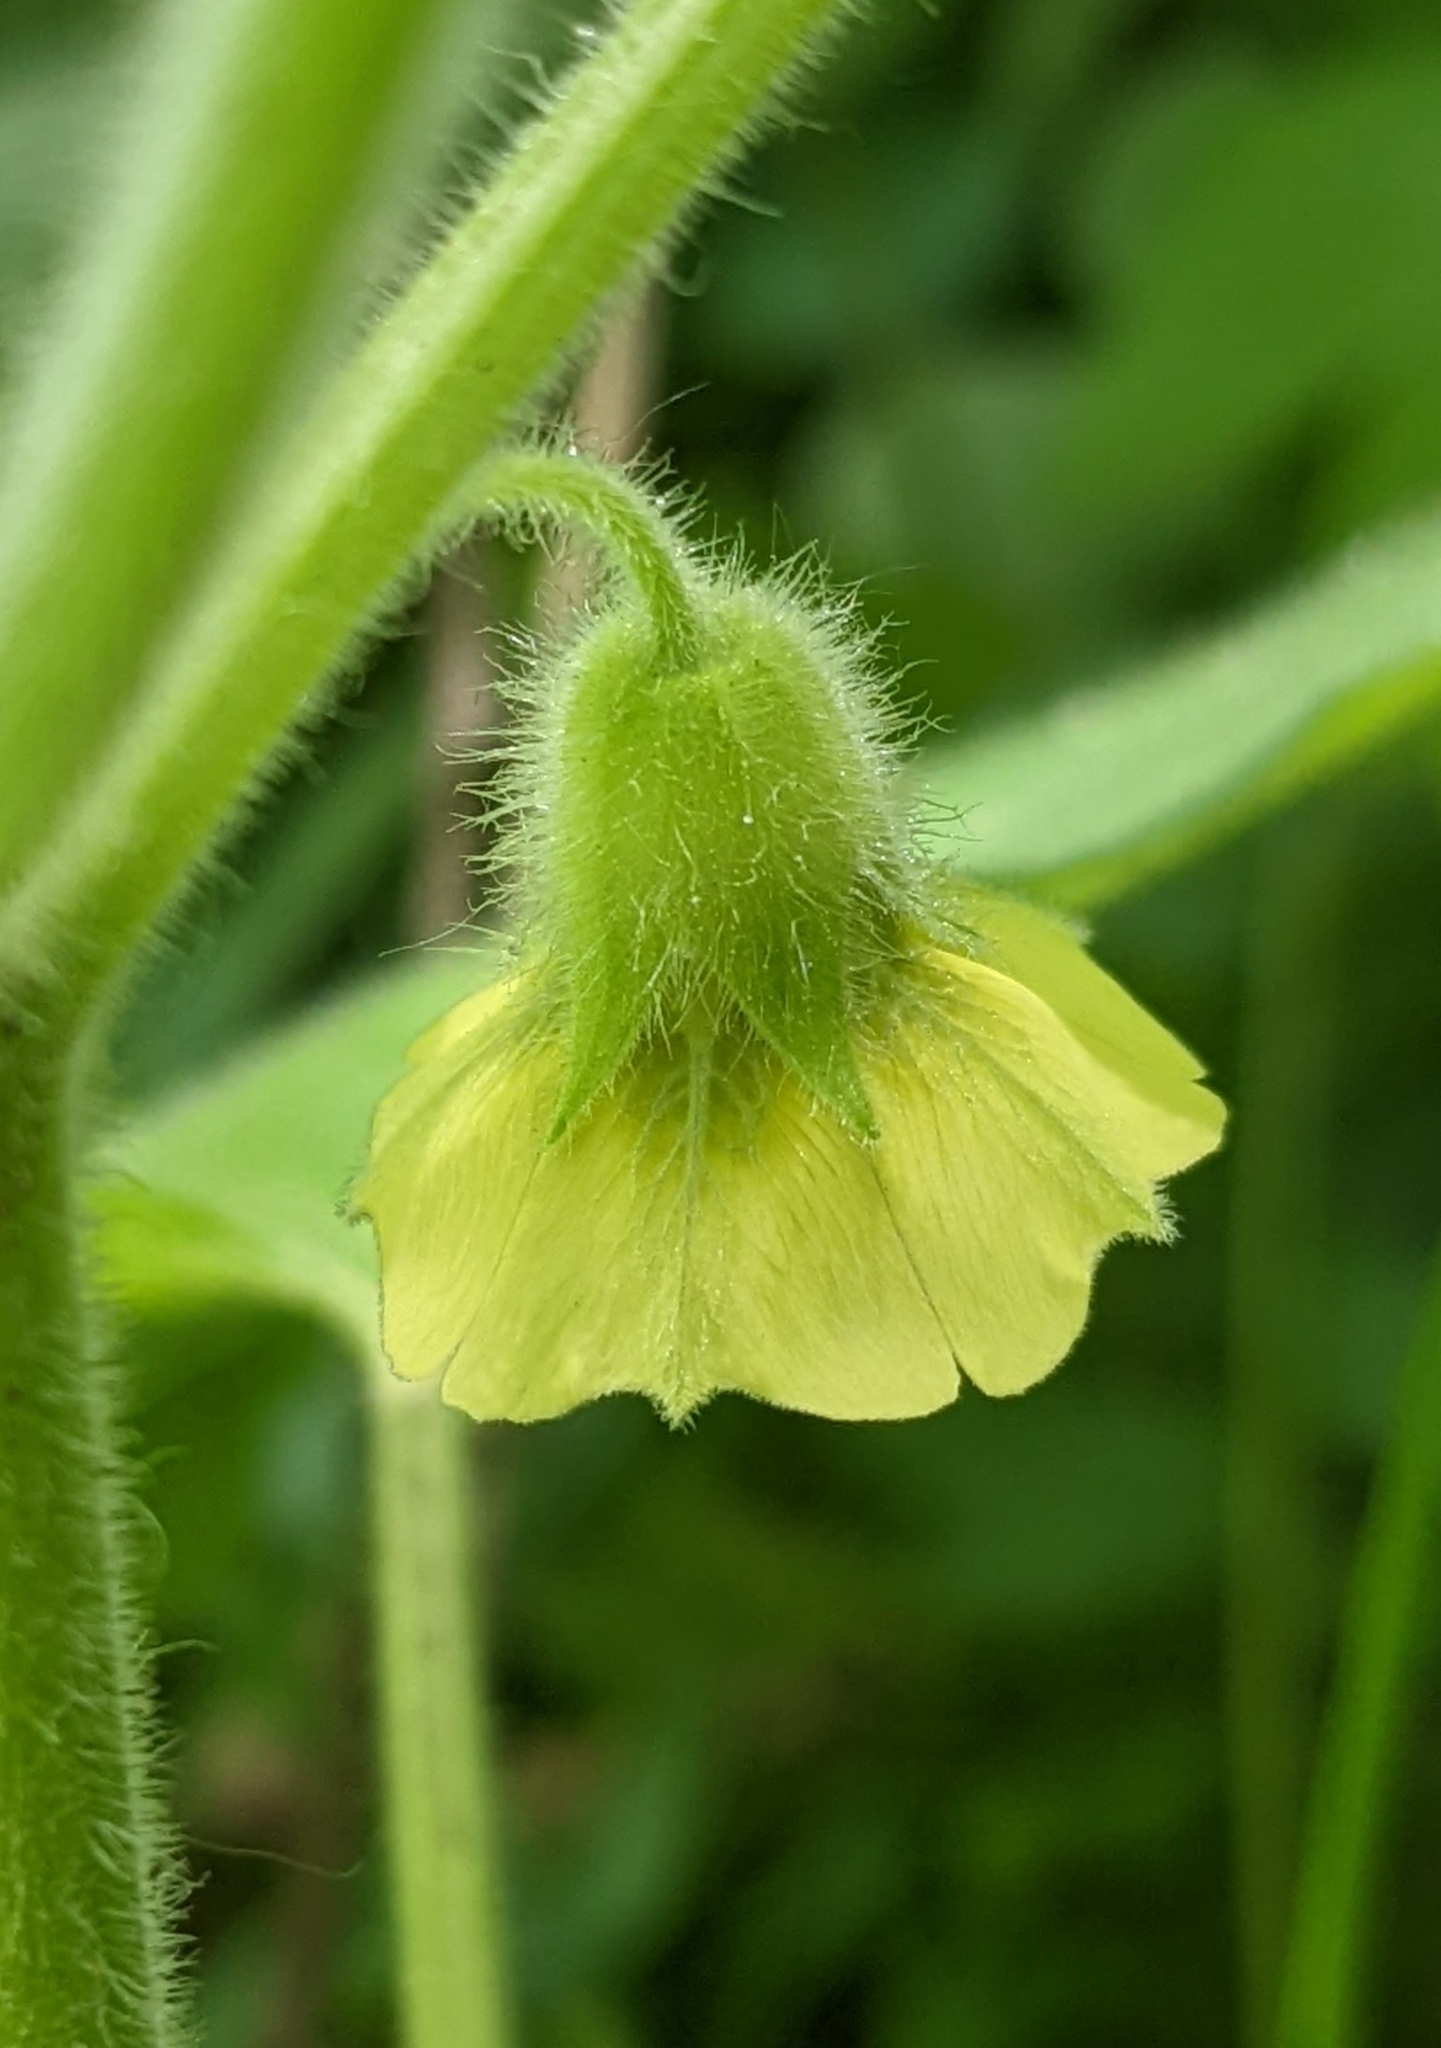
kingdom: Plantae
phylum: Tracheophyta
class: Magnoliopsida
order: Solanales
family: Solanaceae
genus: Physalis
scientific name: Physalis heterophylla
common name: Clammy ground-cherry
